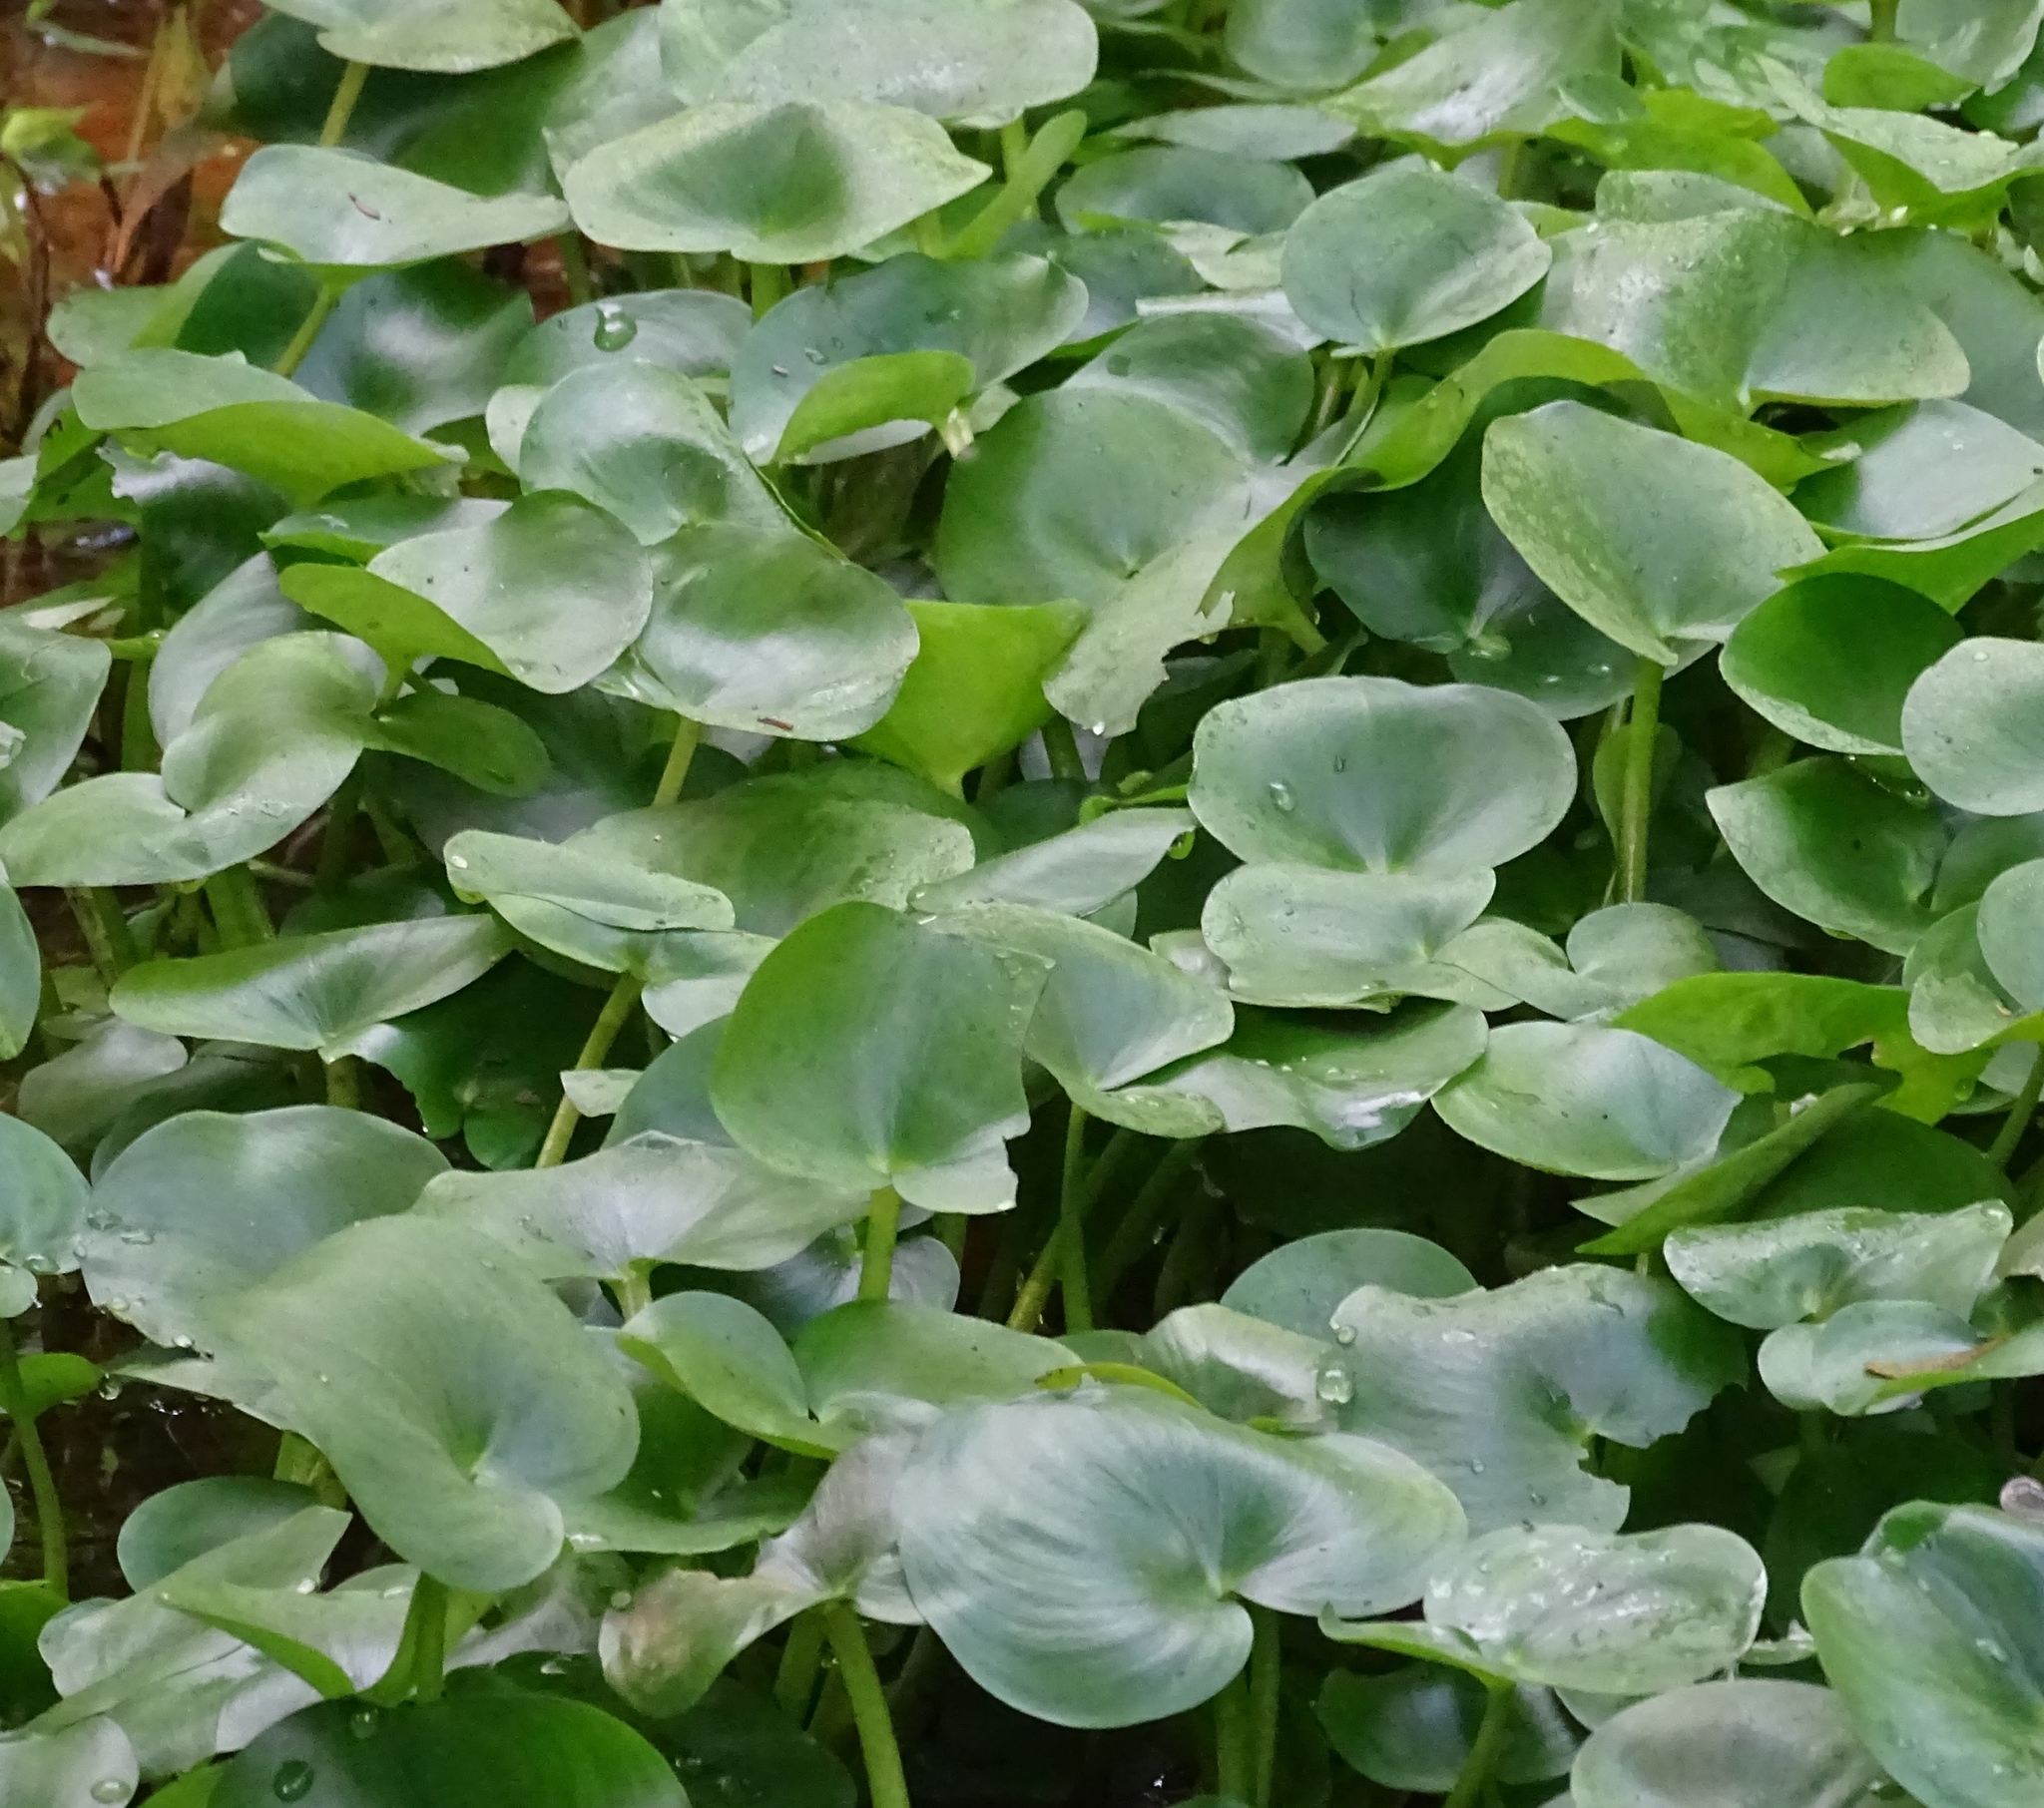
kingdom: Plantae
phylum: Tracheophyta
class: Liliopsida
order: Commelinales
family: Pontederiaceae
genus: Heteranthera
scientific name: Heteranthera pauciflora
